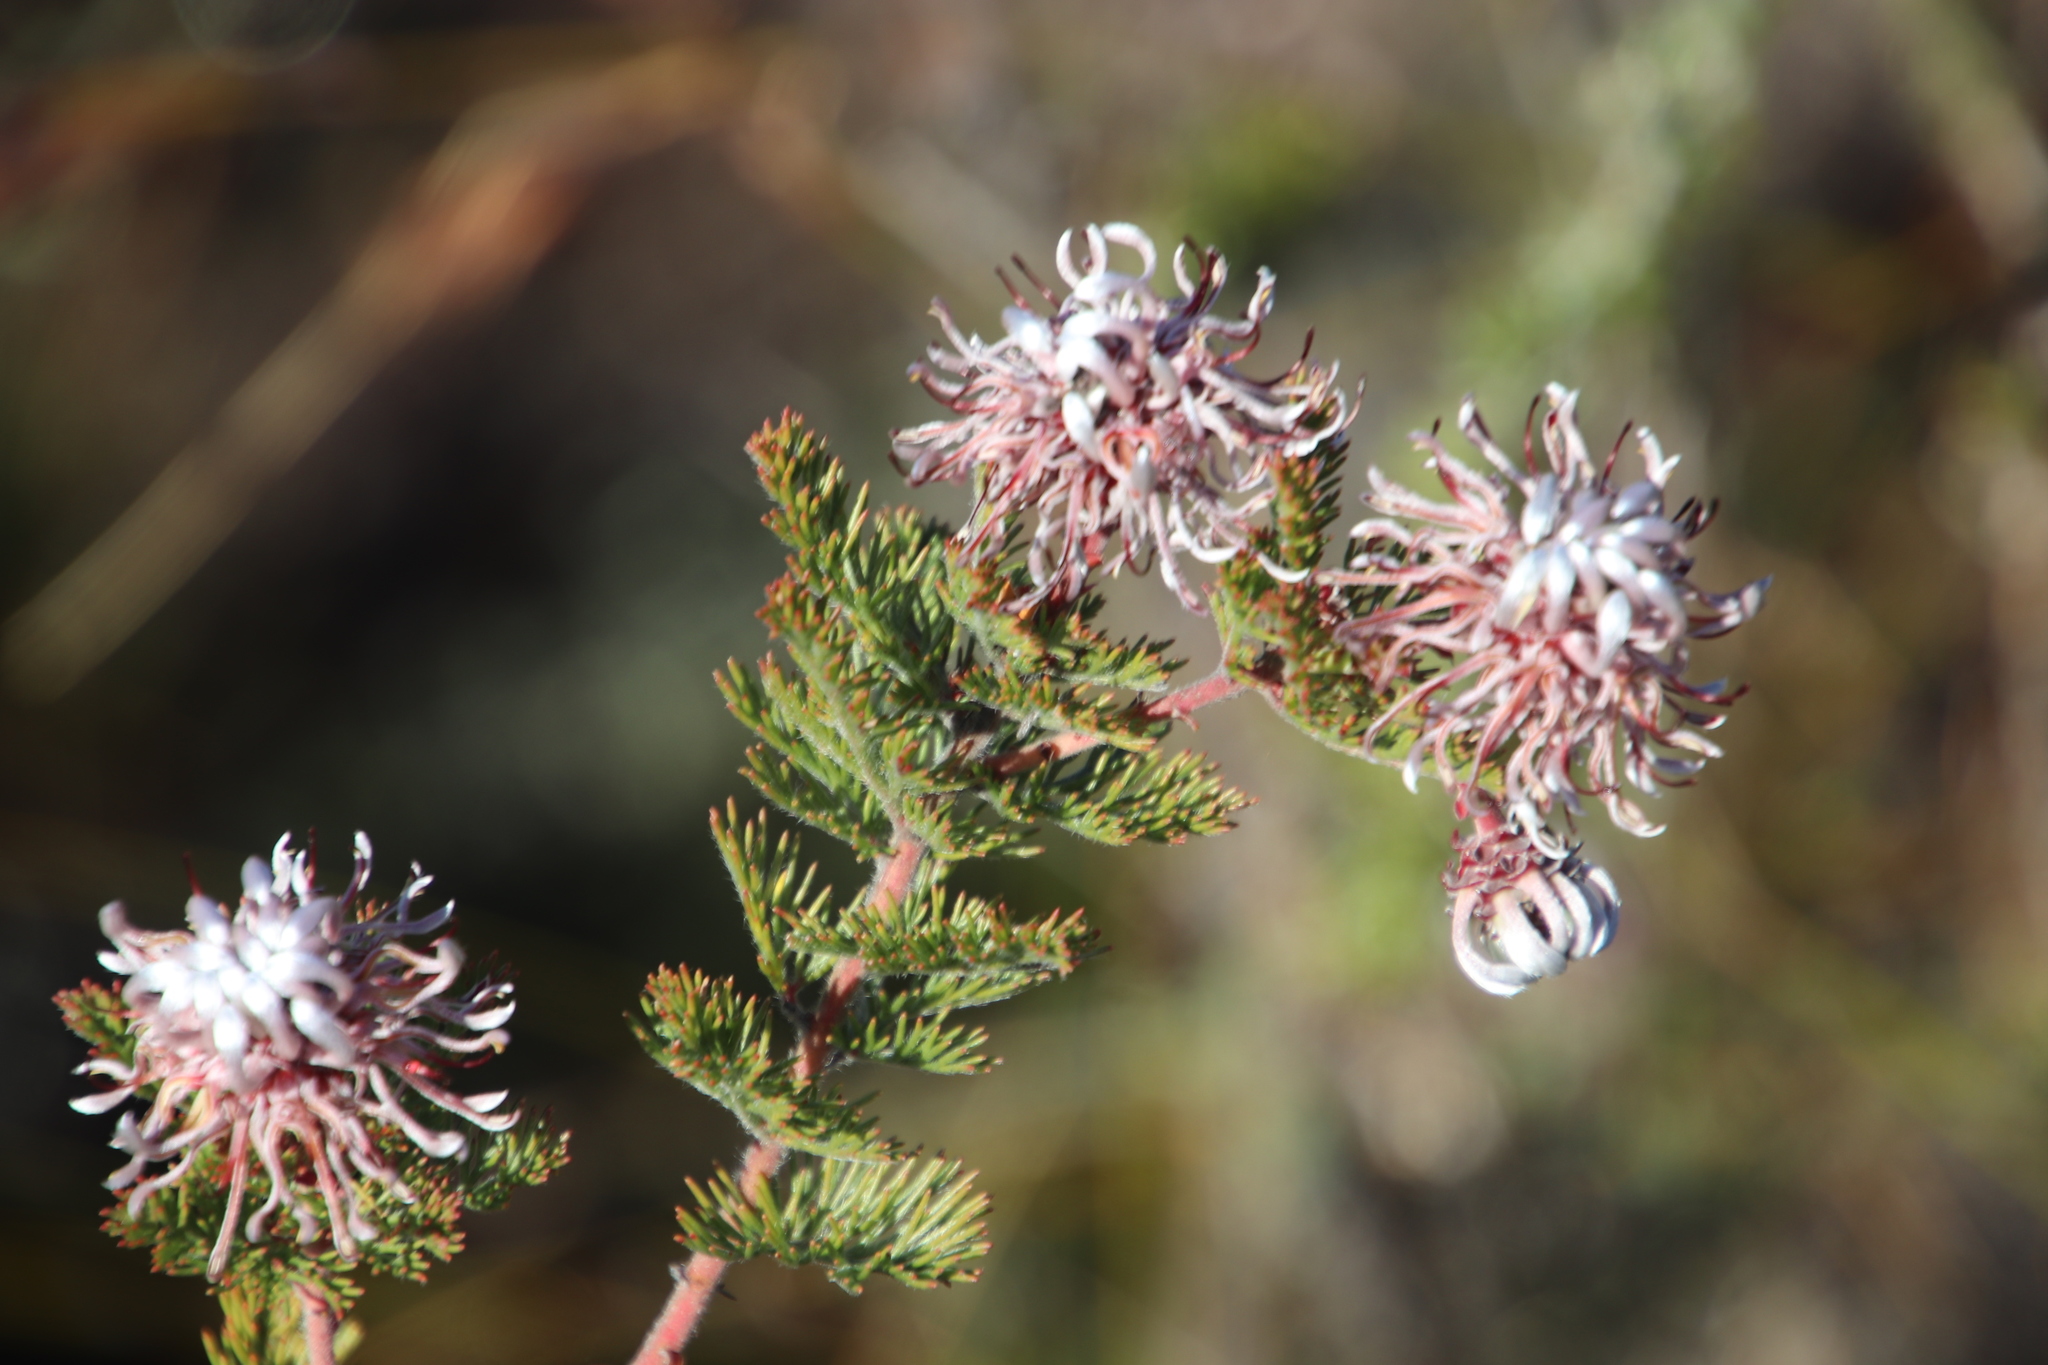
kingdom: Plantae
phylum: Tracheophyta
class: Magnoliopsida
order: Proteales
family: Proteaceae
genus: Serruria
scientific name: Serruria pedunculata
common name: Fan-leaf spiderhead
